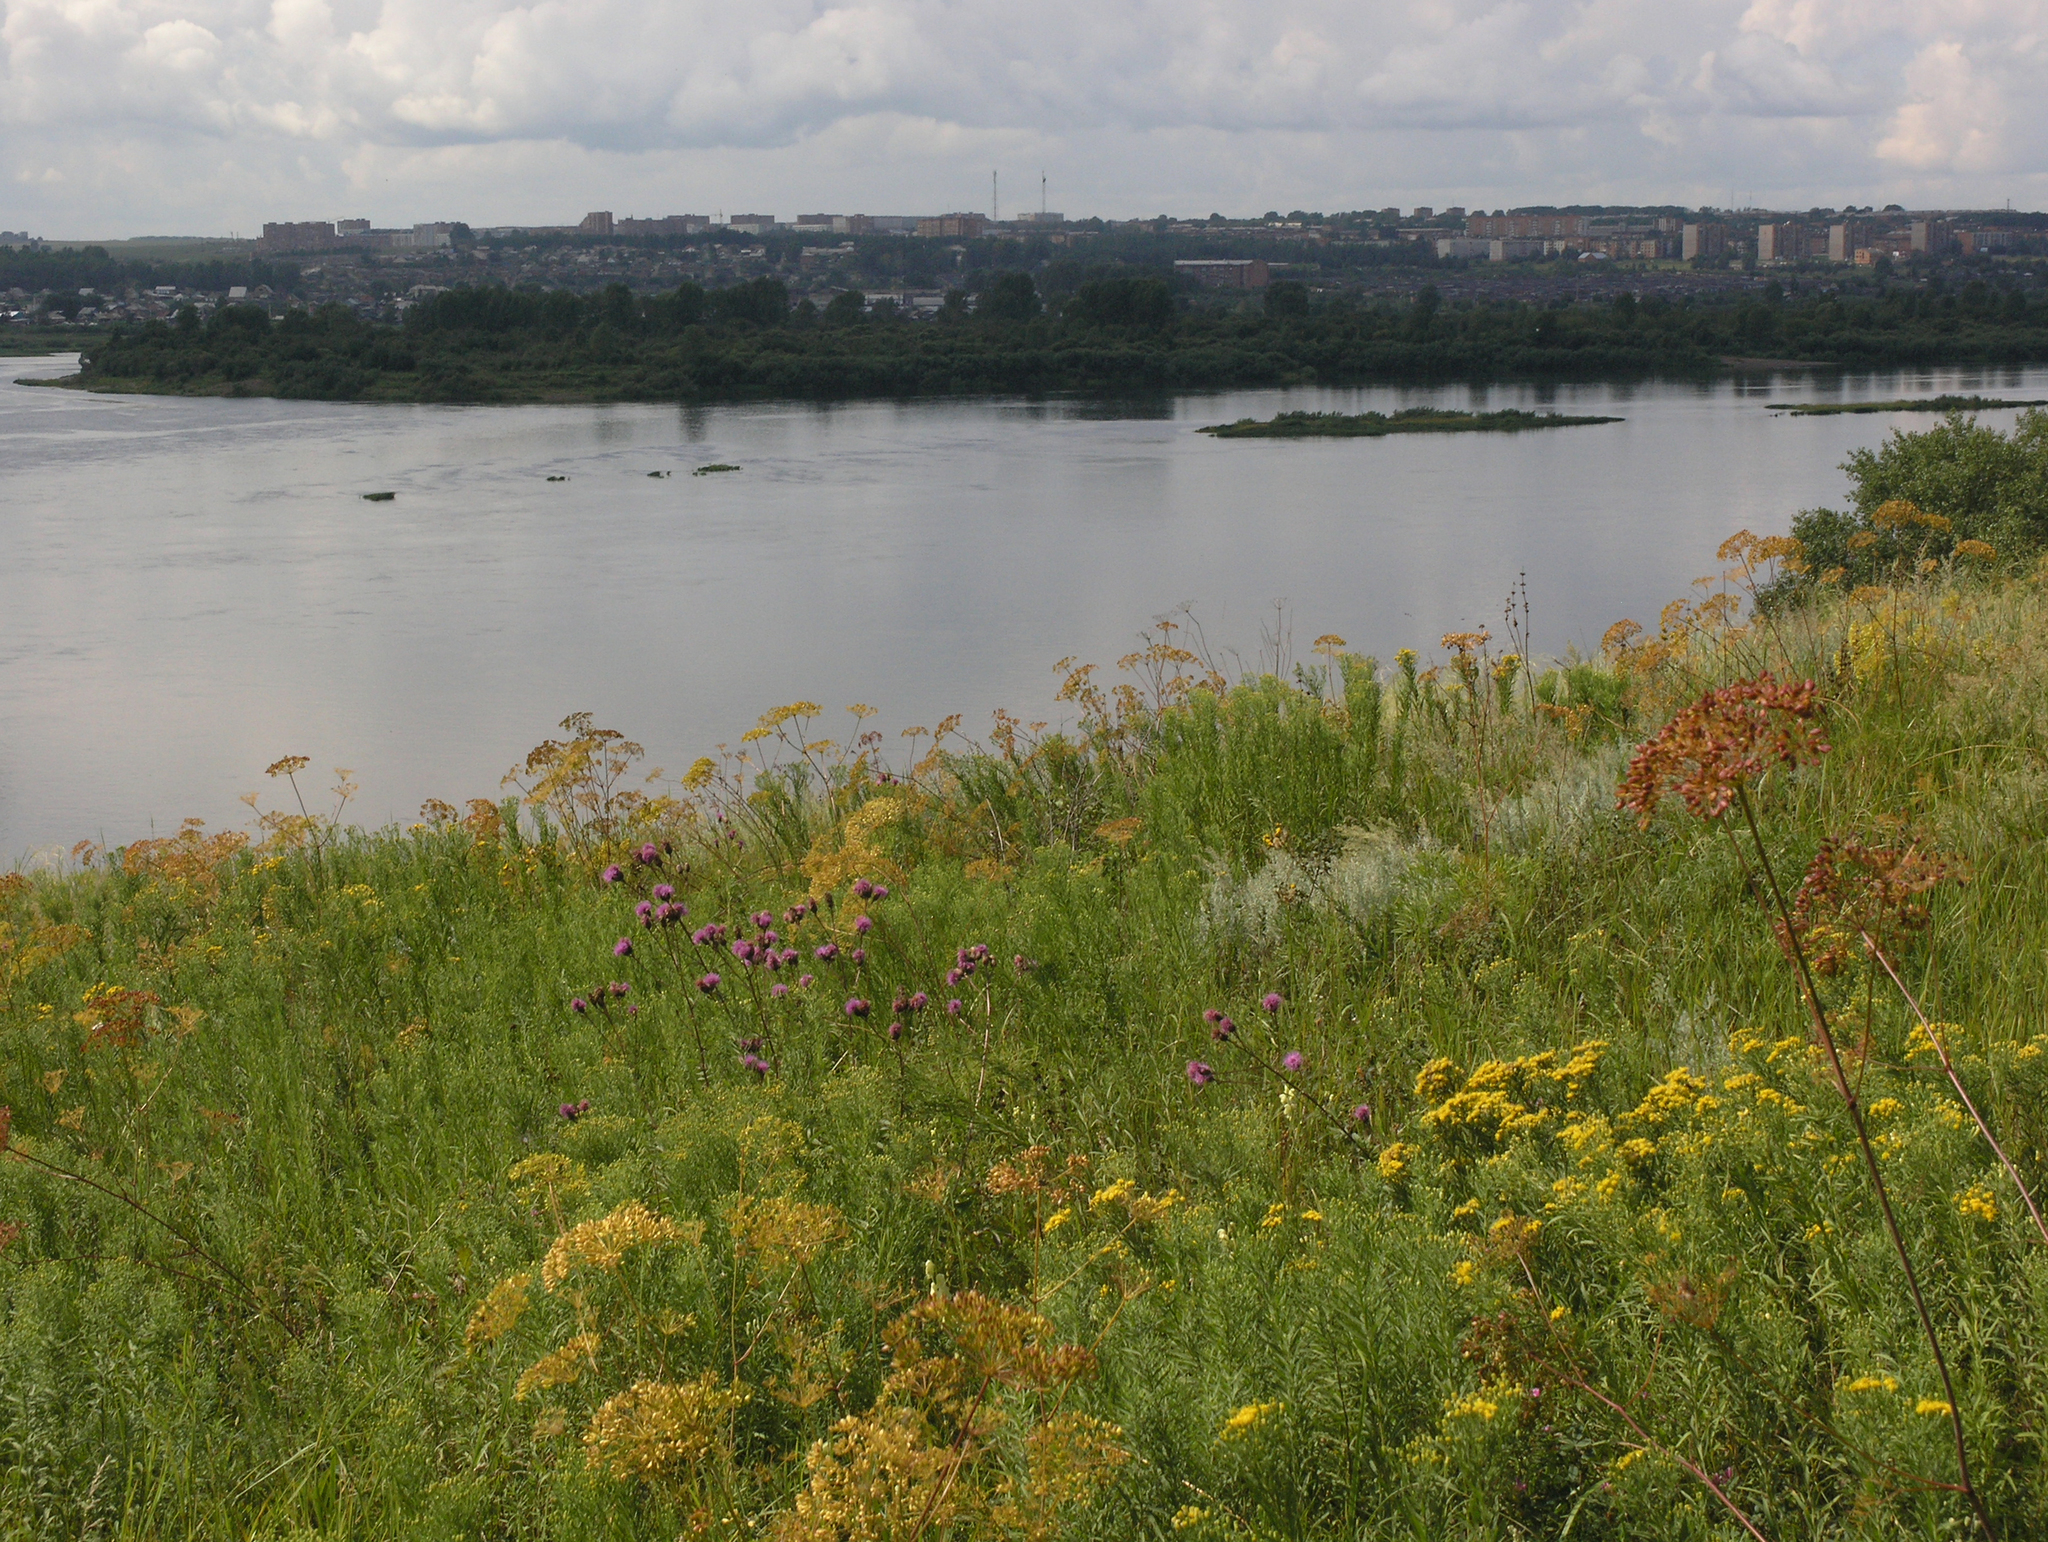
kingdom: Plantae
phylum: Tracheophyta
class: Magnoliopsida
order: Apiales
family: Apiaceae
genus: Peucedanum
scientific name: Peucedanum morisonii
